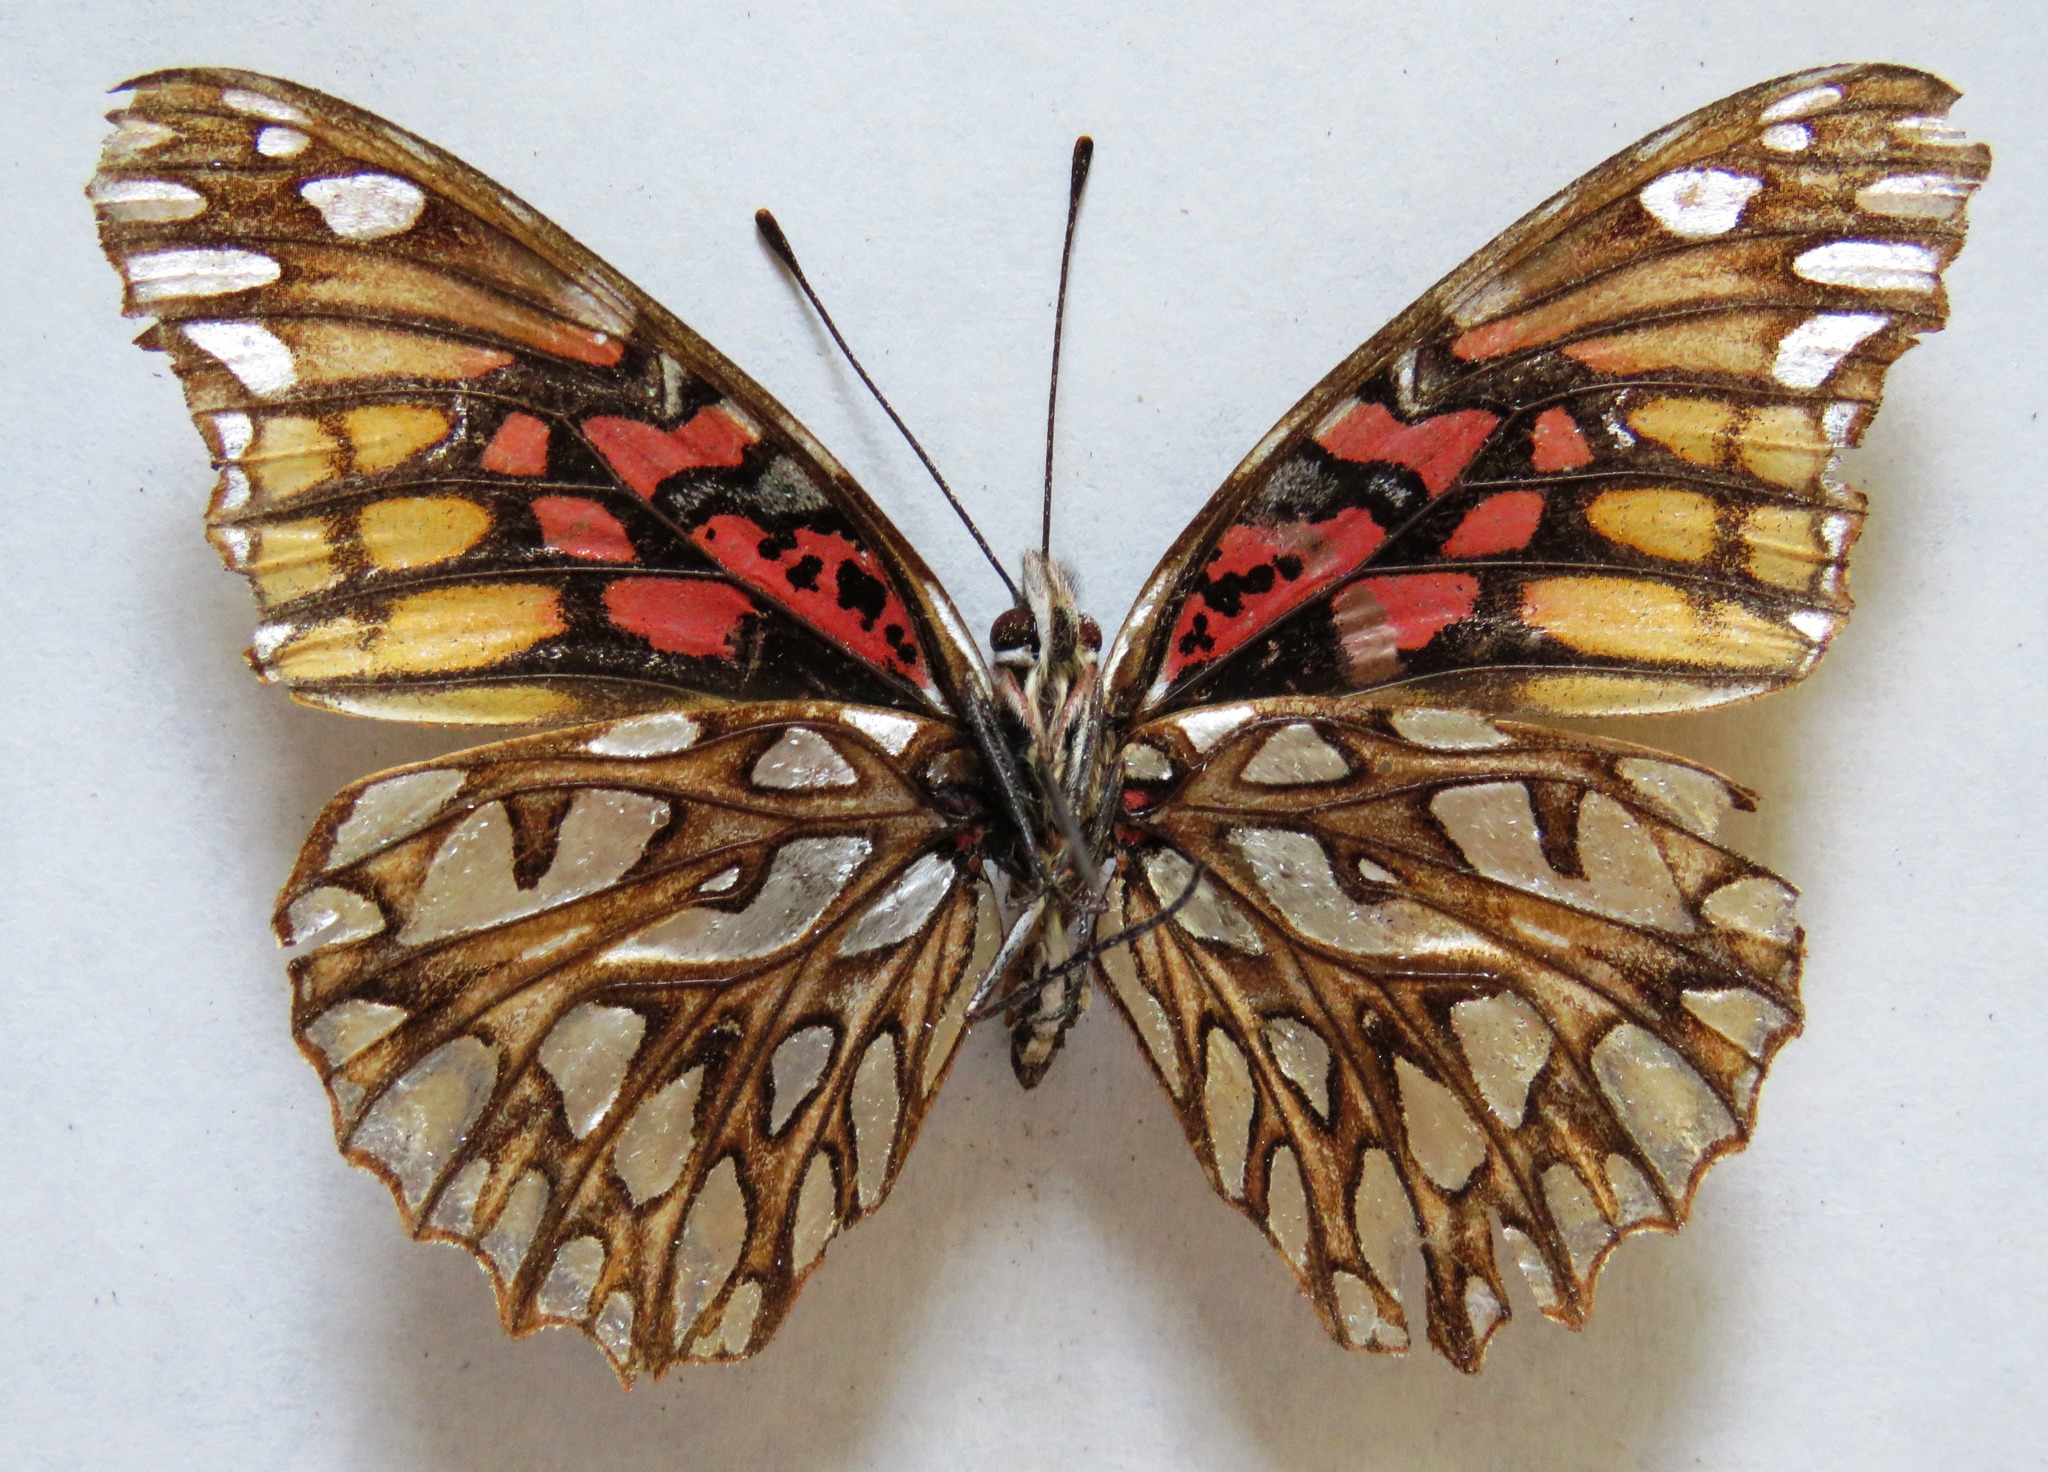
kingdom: Animalia
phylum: Arthropoda
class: Insecta
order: Lepidoptera
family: Nymphalidae
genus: Dione
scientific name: Dione moneta
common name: Mexican silverspot
